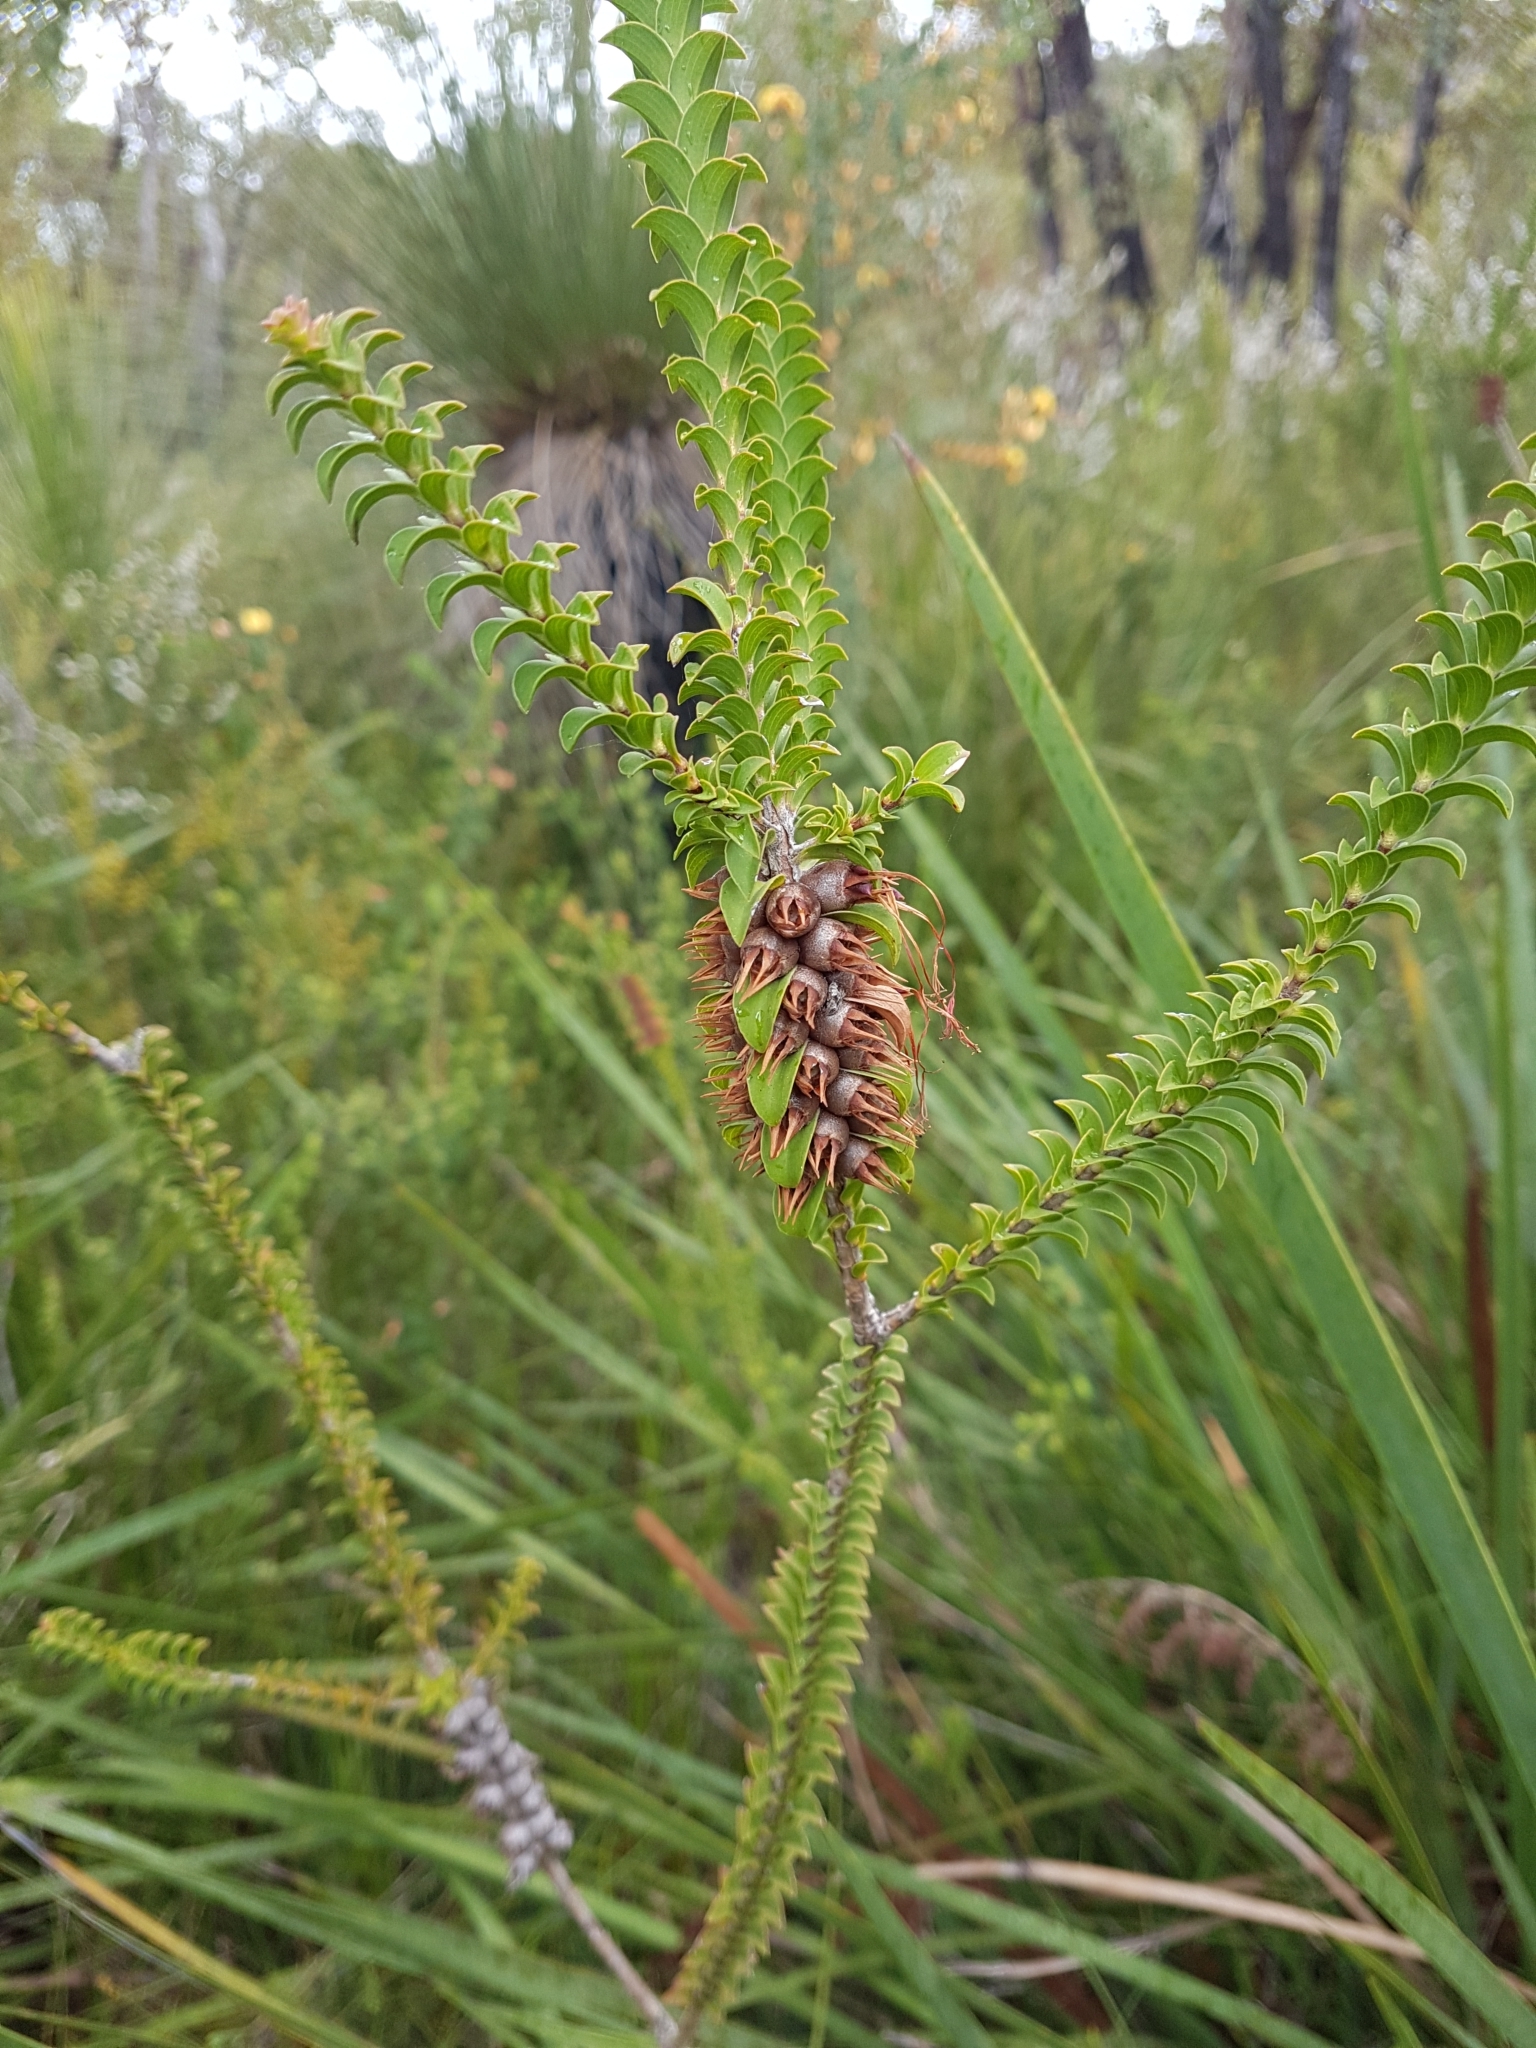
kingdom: Plantae
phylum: Tracheophyta
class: Magnoliopsida
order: Myrtales
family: Myrtaceae
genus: Melaleuca
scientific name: Melaleuca sparsa
